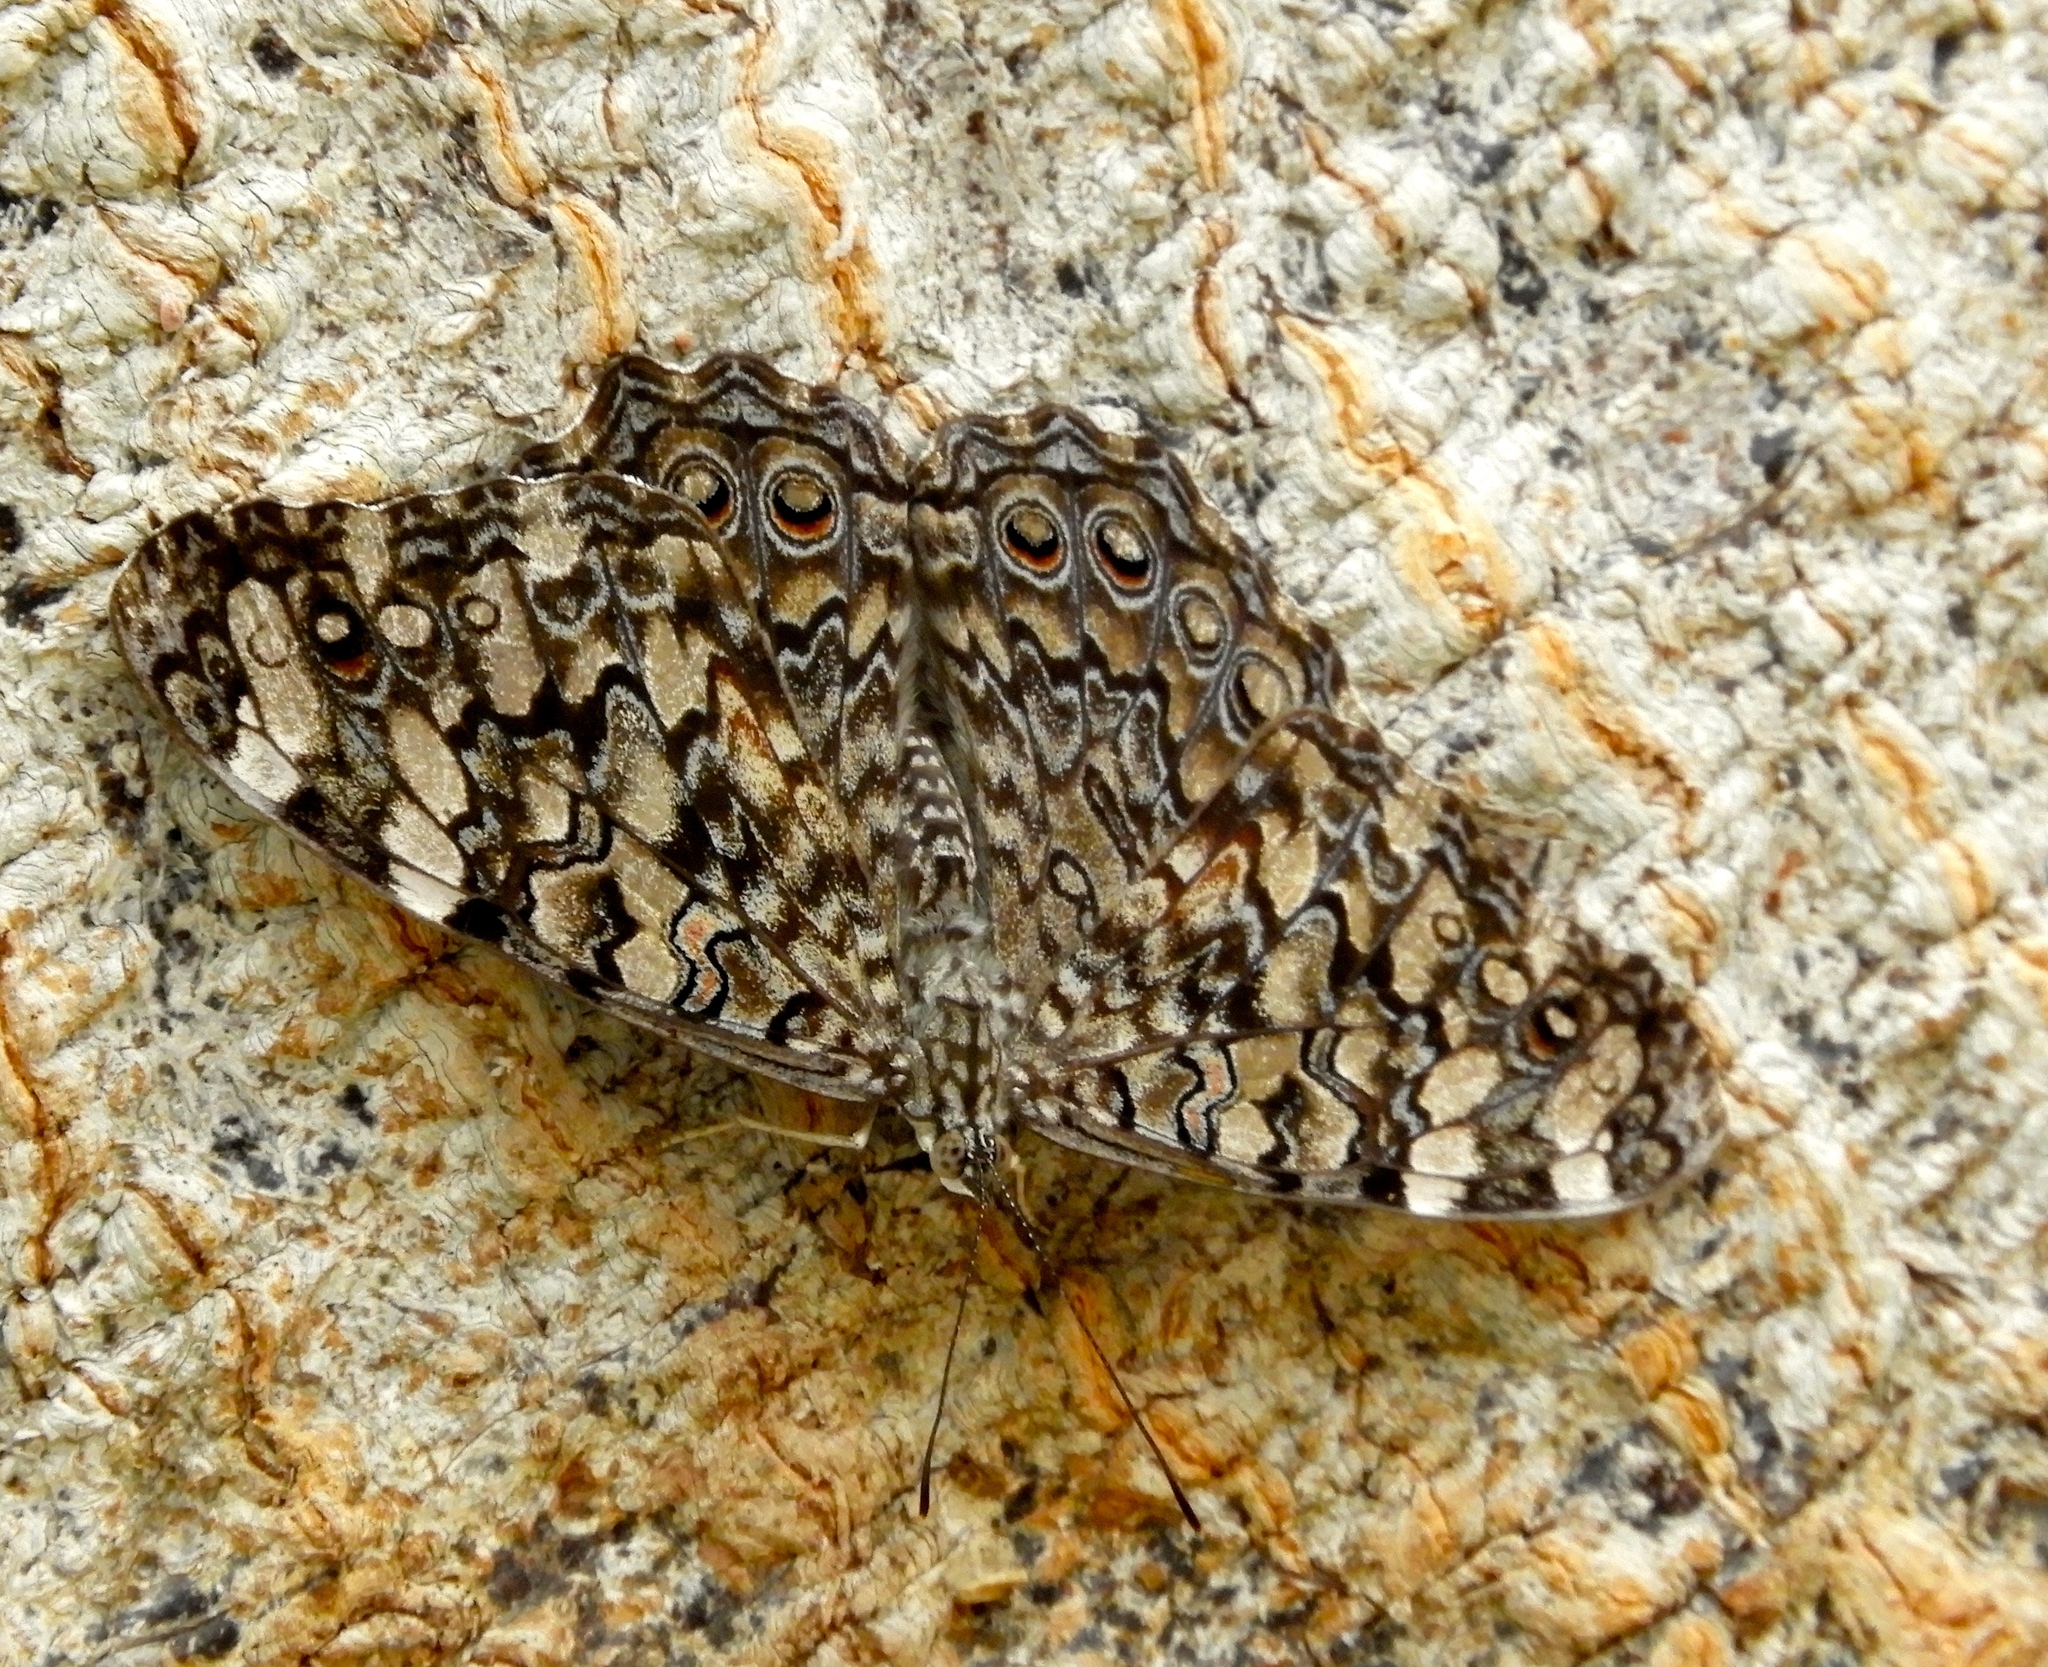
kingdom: Animalia
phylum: Arthropoda
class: Insecta
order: Lepidoptera
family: Nymphalidae
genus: Hamadryas
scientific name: Hamadryas februa
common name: Gray cracker
